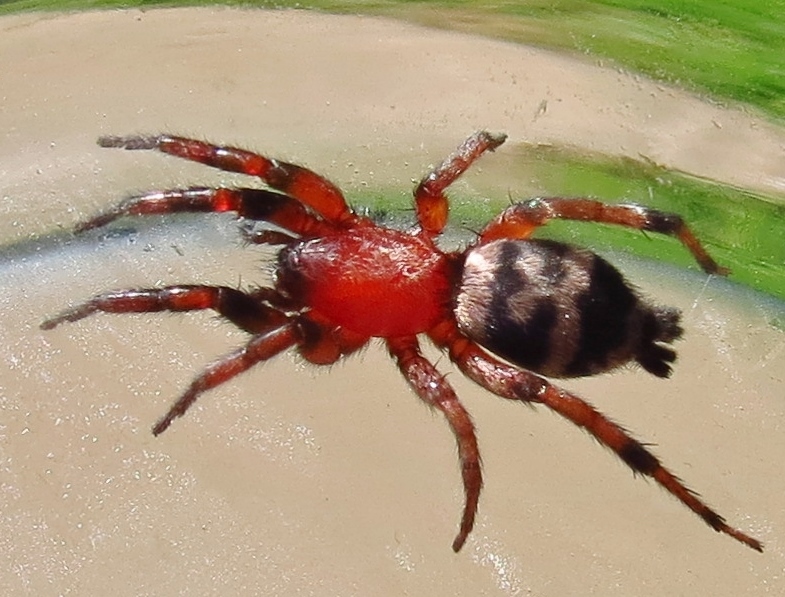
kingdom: Animalia
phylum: Arthropoda
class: Arachnida
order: Araneae
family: Gnaphosidae
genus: Sergiolus
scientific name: Sergiolus capulatus
